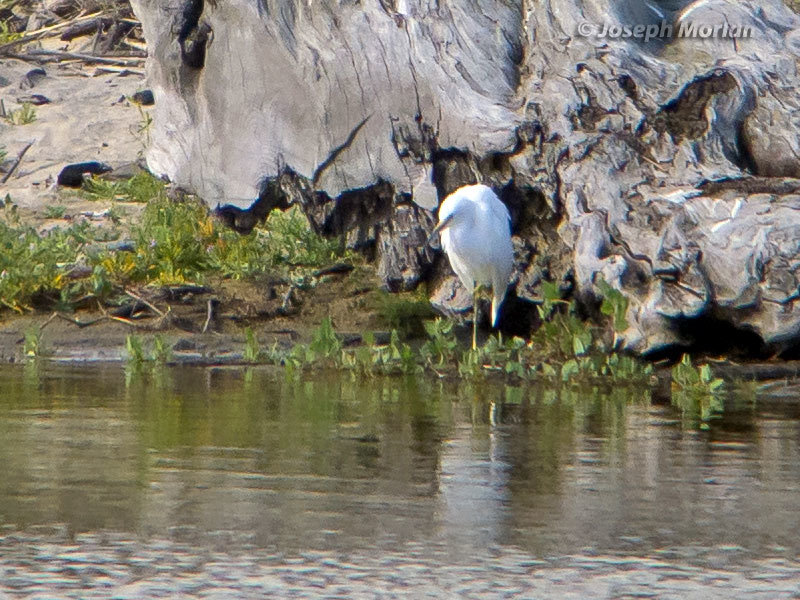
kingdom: Animalia
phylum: Chordata
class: Aves
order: Pelecaniformes
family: Ardeidae
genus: Egretta
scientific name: Egretta thula
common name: Snowy egret
